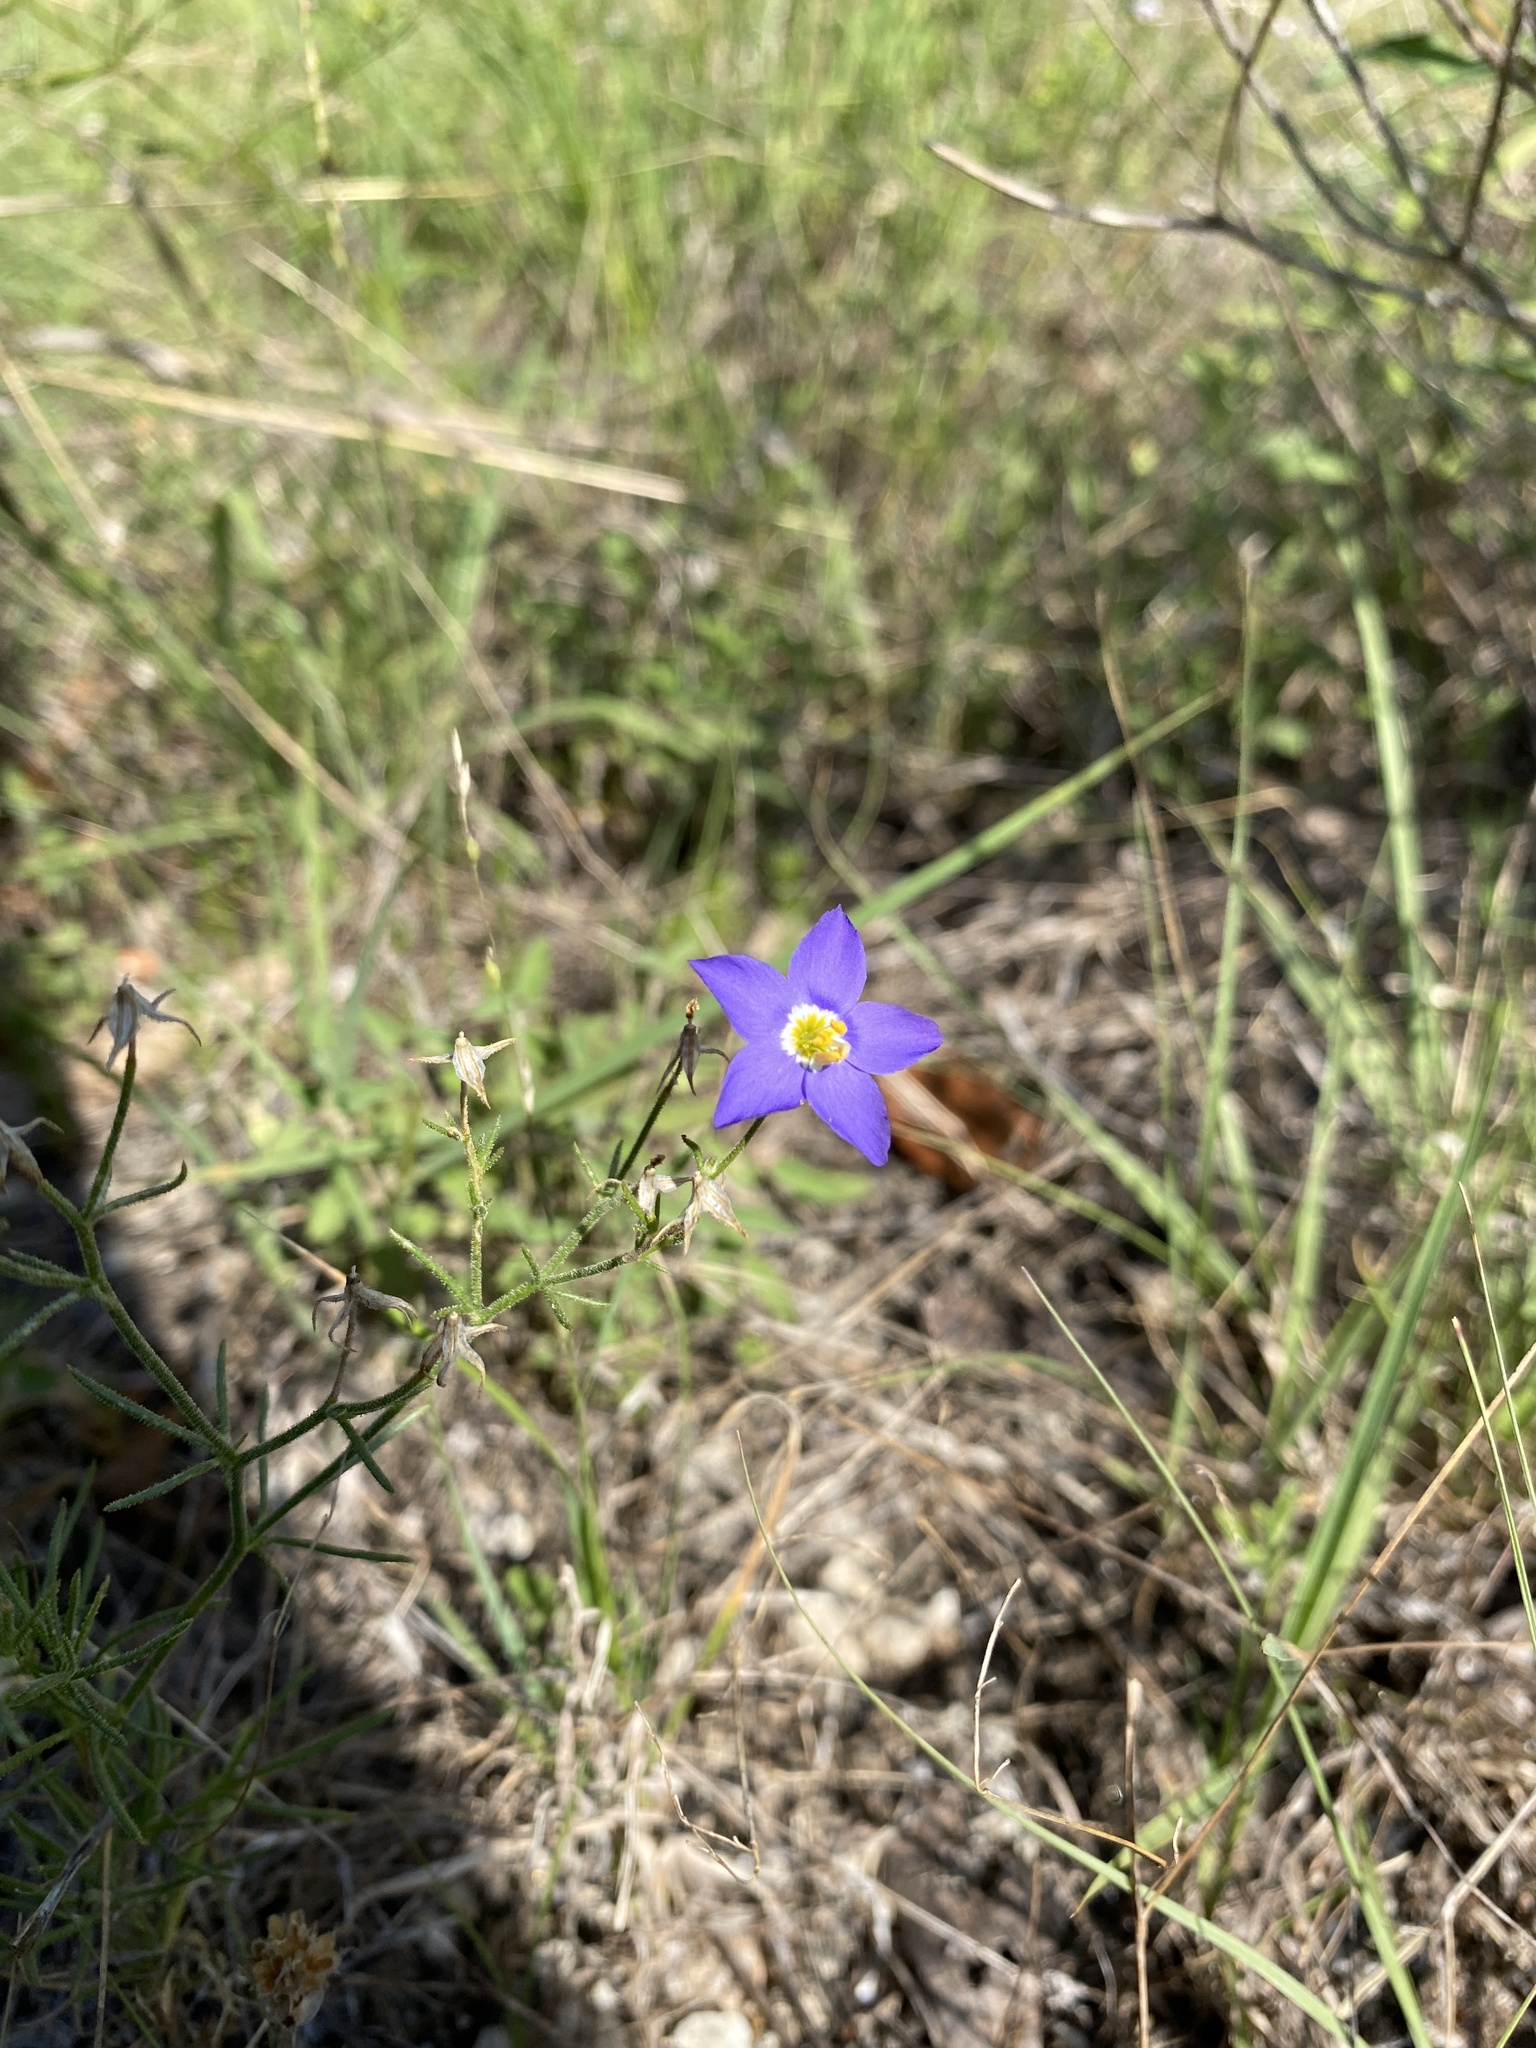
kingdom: Plantae
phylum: Tracheophyta
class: Magnoliopsida
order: Ericales
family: Polemoniaceae
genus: Giliastrum
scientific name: Giliastrum rigidulum
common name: Bluebowls
